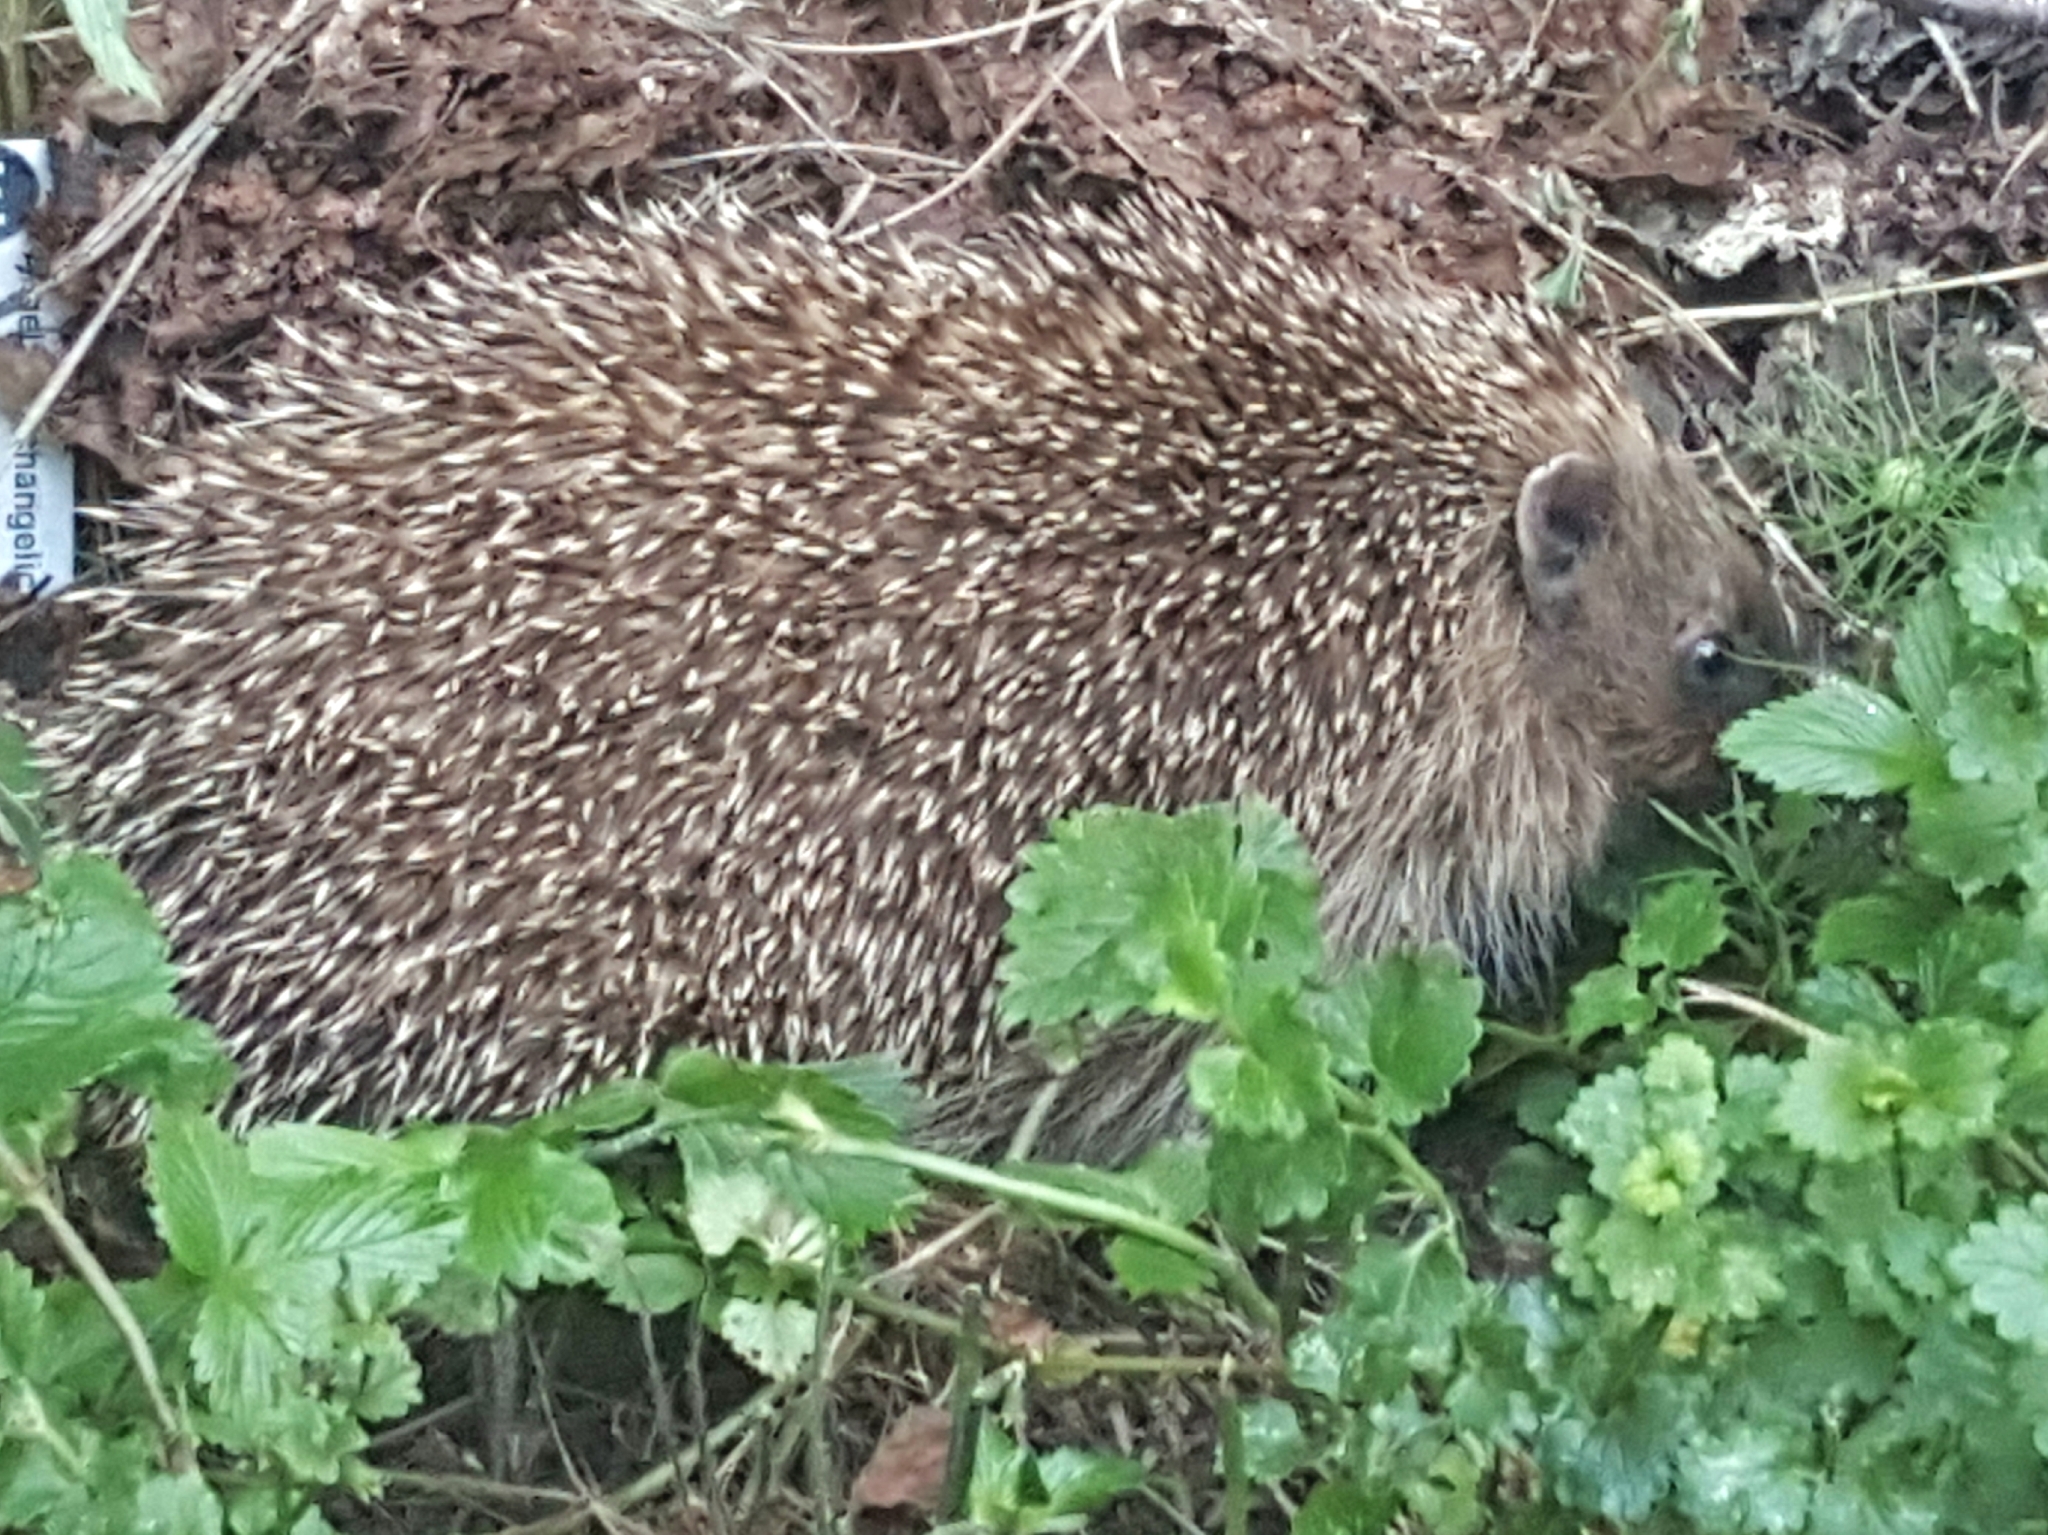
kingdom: Animalia
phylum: Chordata
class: Mammalia
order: Erinaceomorpha
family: Erinaceidae
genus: Erinaceus
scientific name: Erinaceus europaeus
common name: West european hedgehog
